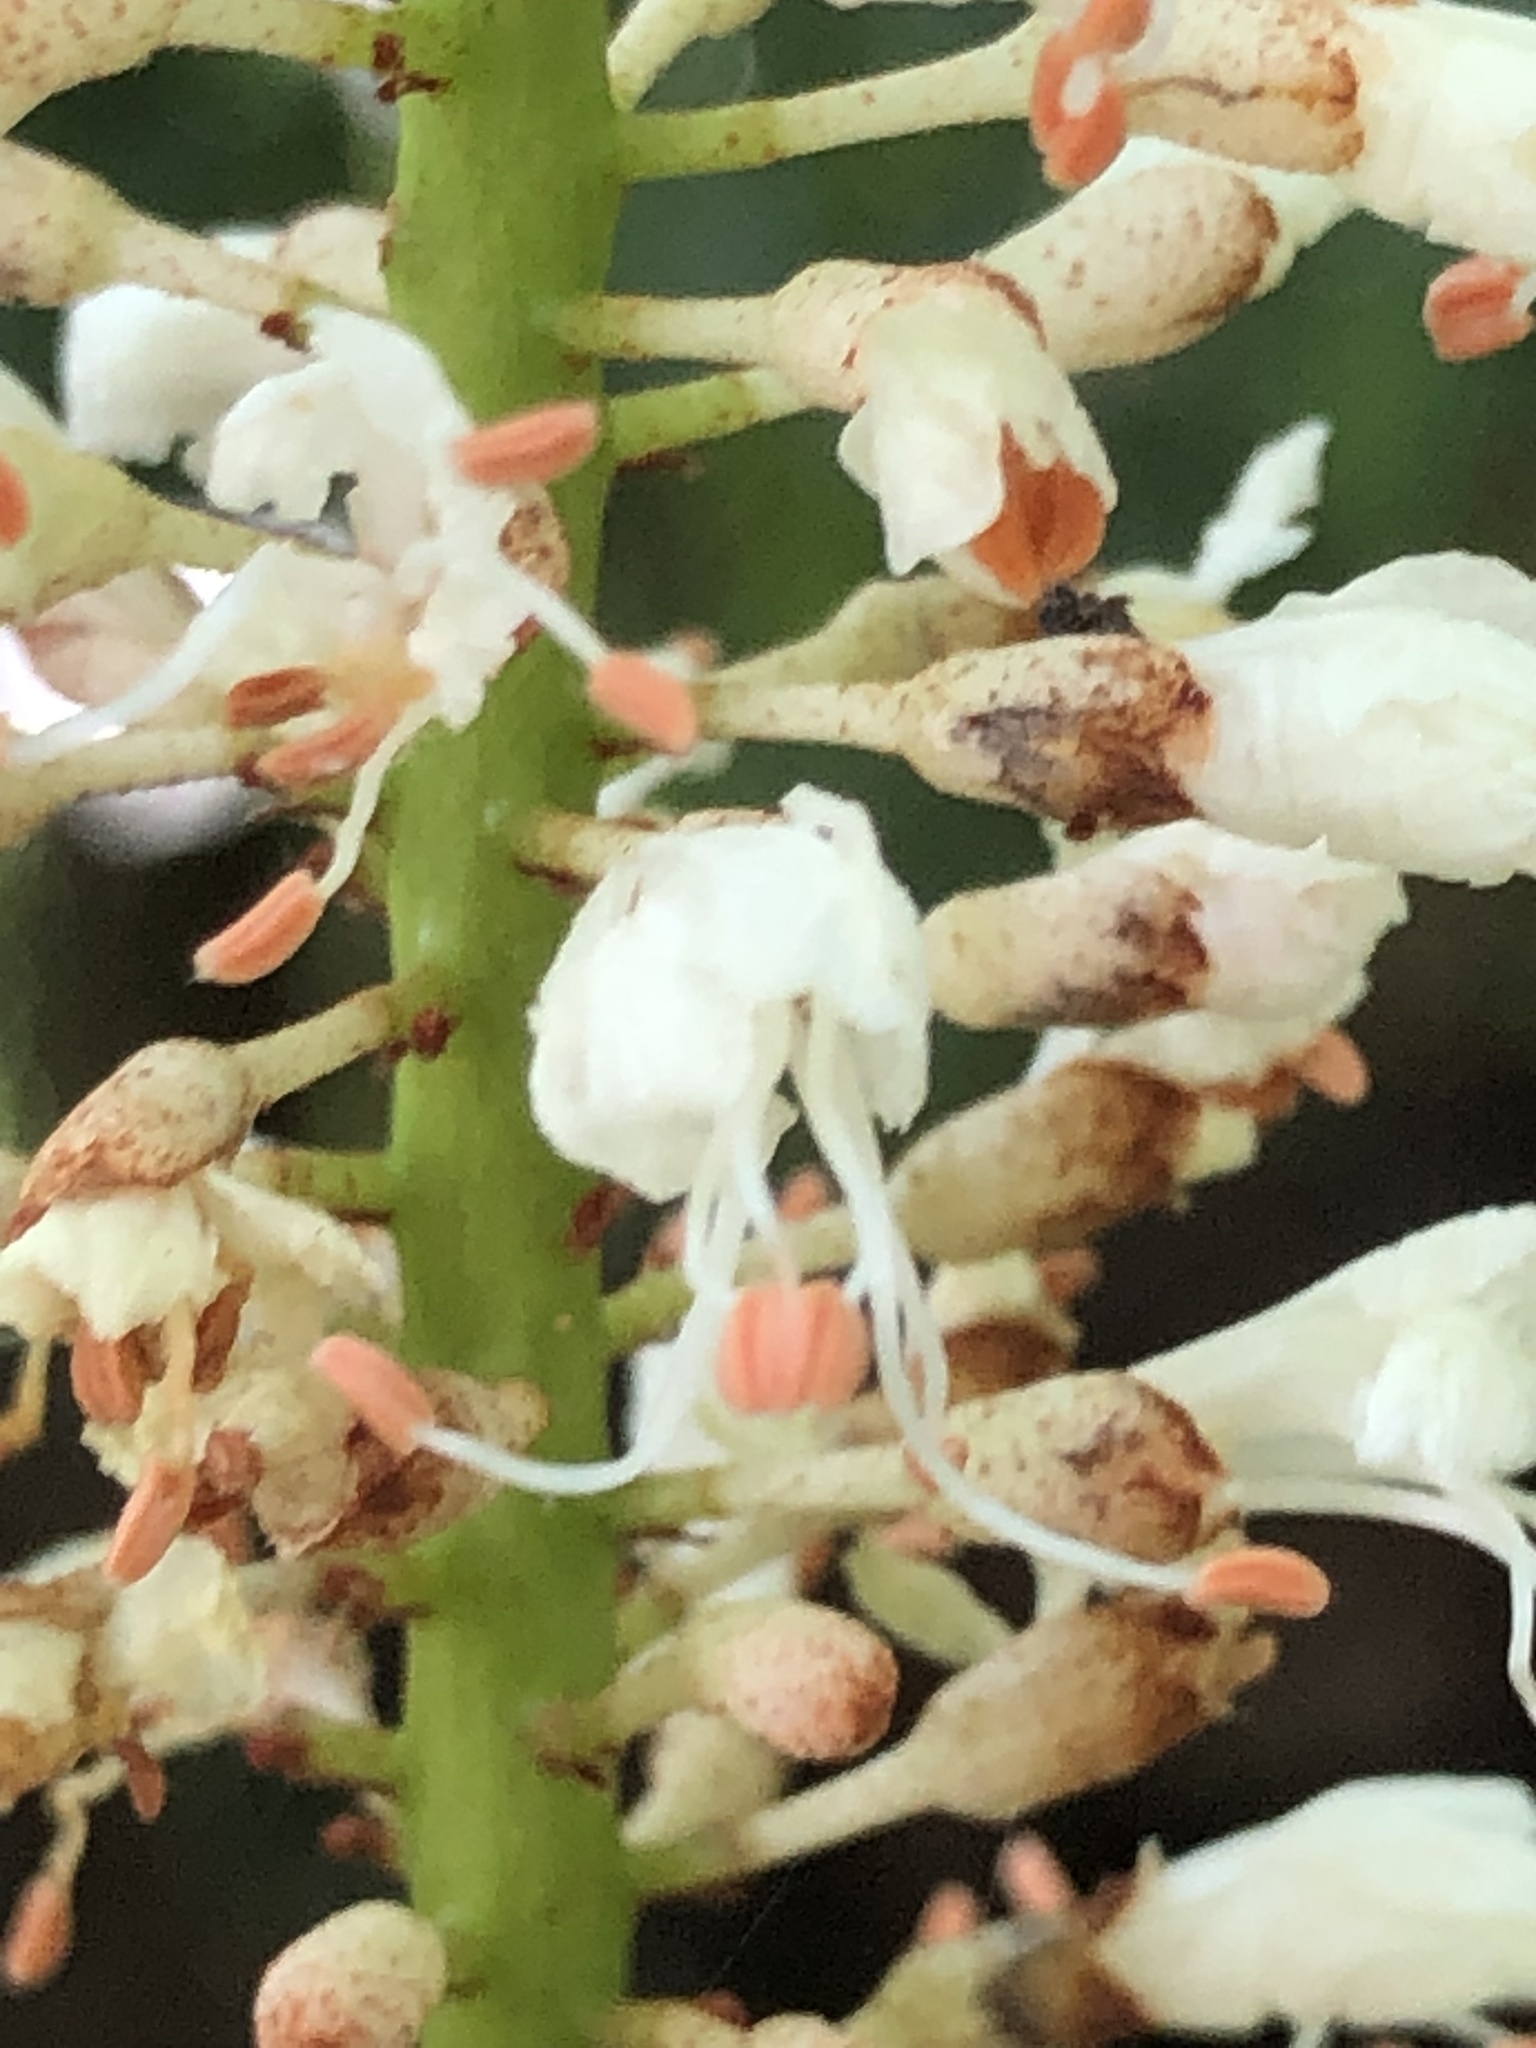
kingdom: Plantae
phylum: Tracheophyta
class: Magnoliopsida
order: Sapindales
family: Sapindaceae
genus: Aesculus
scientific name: Aesculus parviflora
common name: Bottlebrush buckeye
